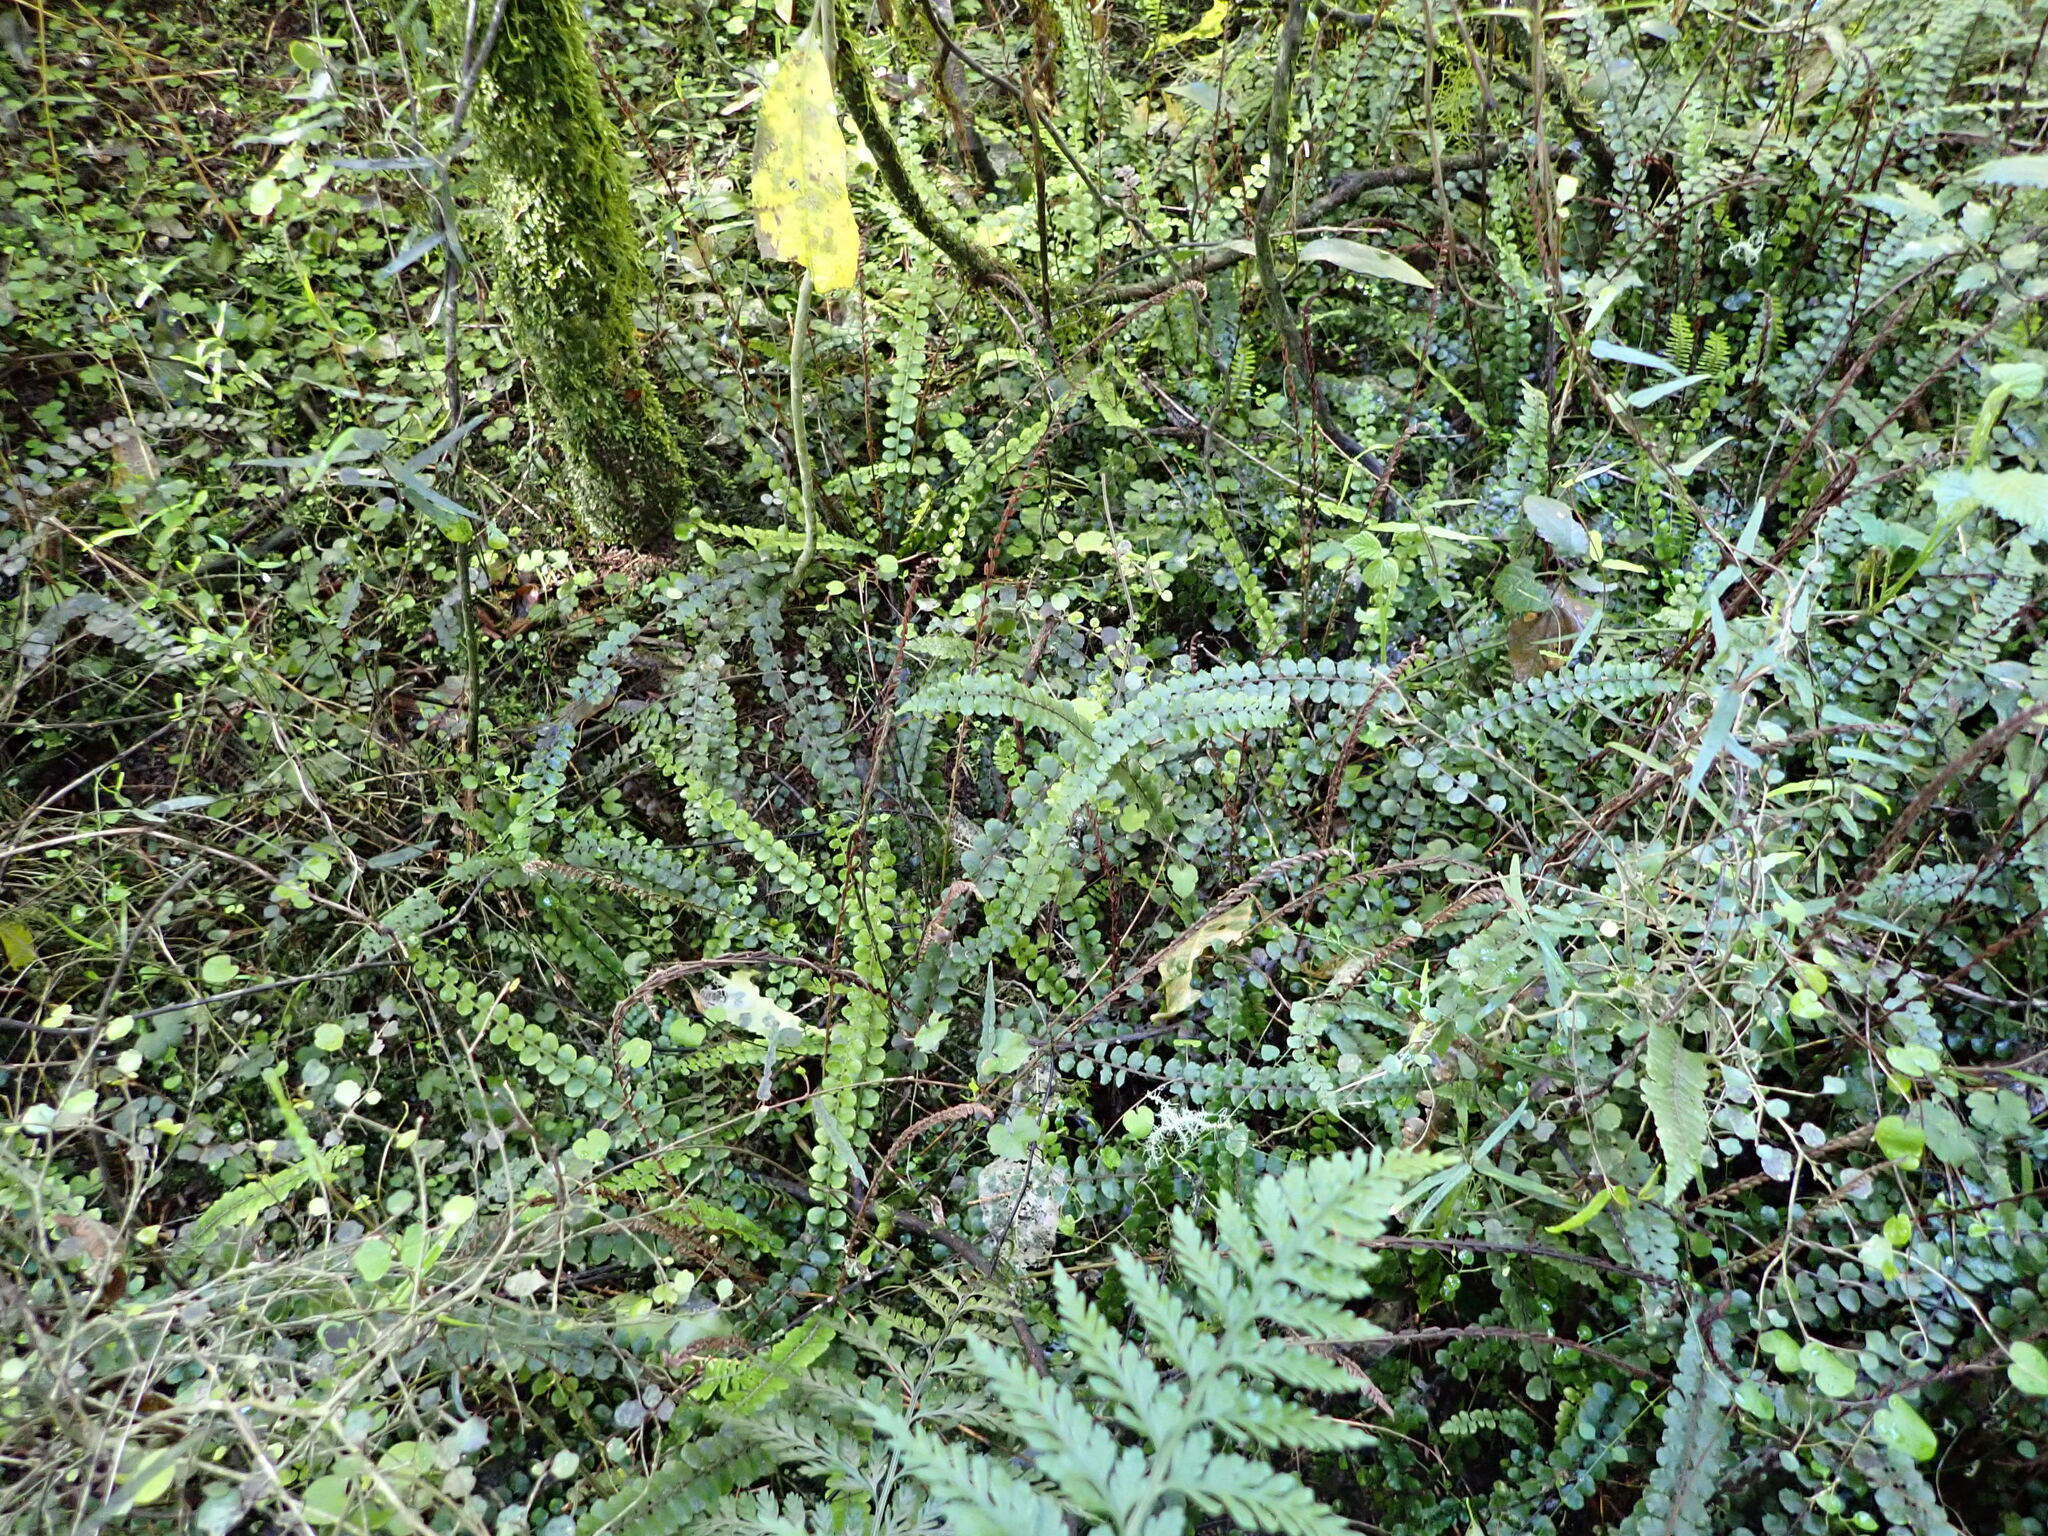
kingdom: Plantae
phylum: Tracheophyta
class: Polypodiopsida
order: Polypodiales
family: Blechnaceae
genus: Cranfillia
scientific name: Cranfillia fluviatilis
